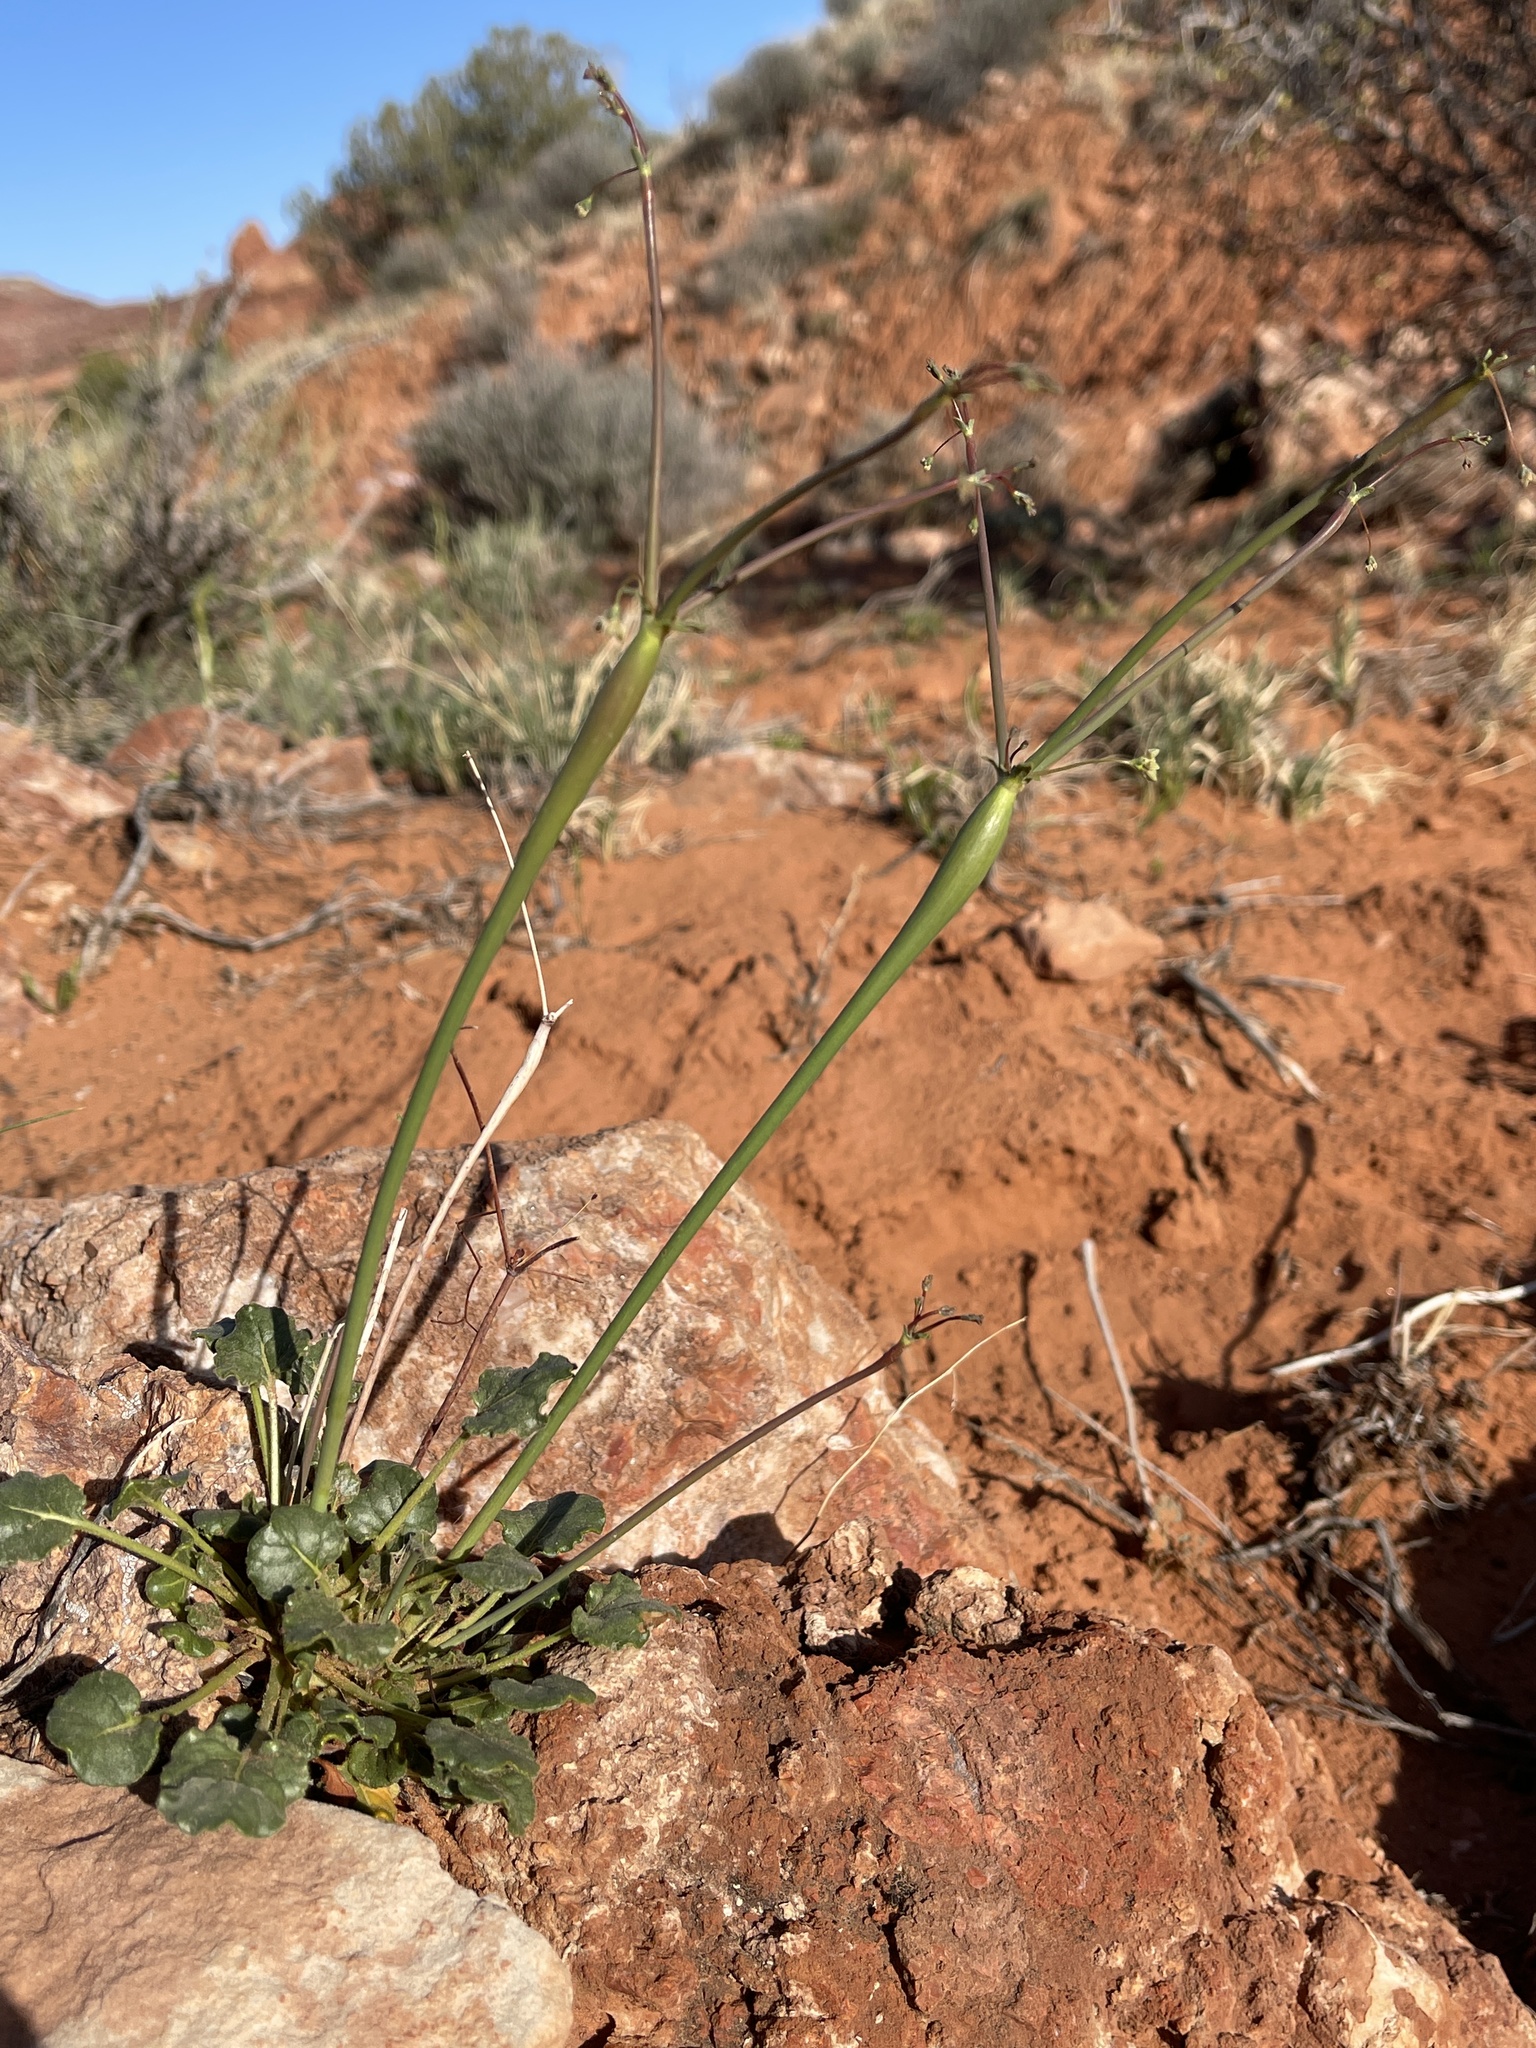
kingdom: Plantae
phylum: Tracheophyta
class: Magnoliopsida
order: Caryophyllales
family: Polygonaceae
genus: Eriogonum
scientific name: Eriogonum inflatum
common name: Desert trumpet
